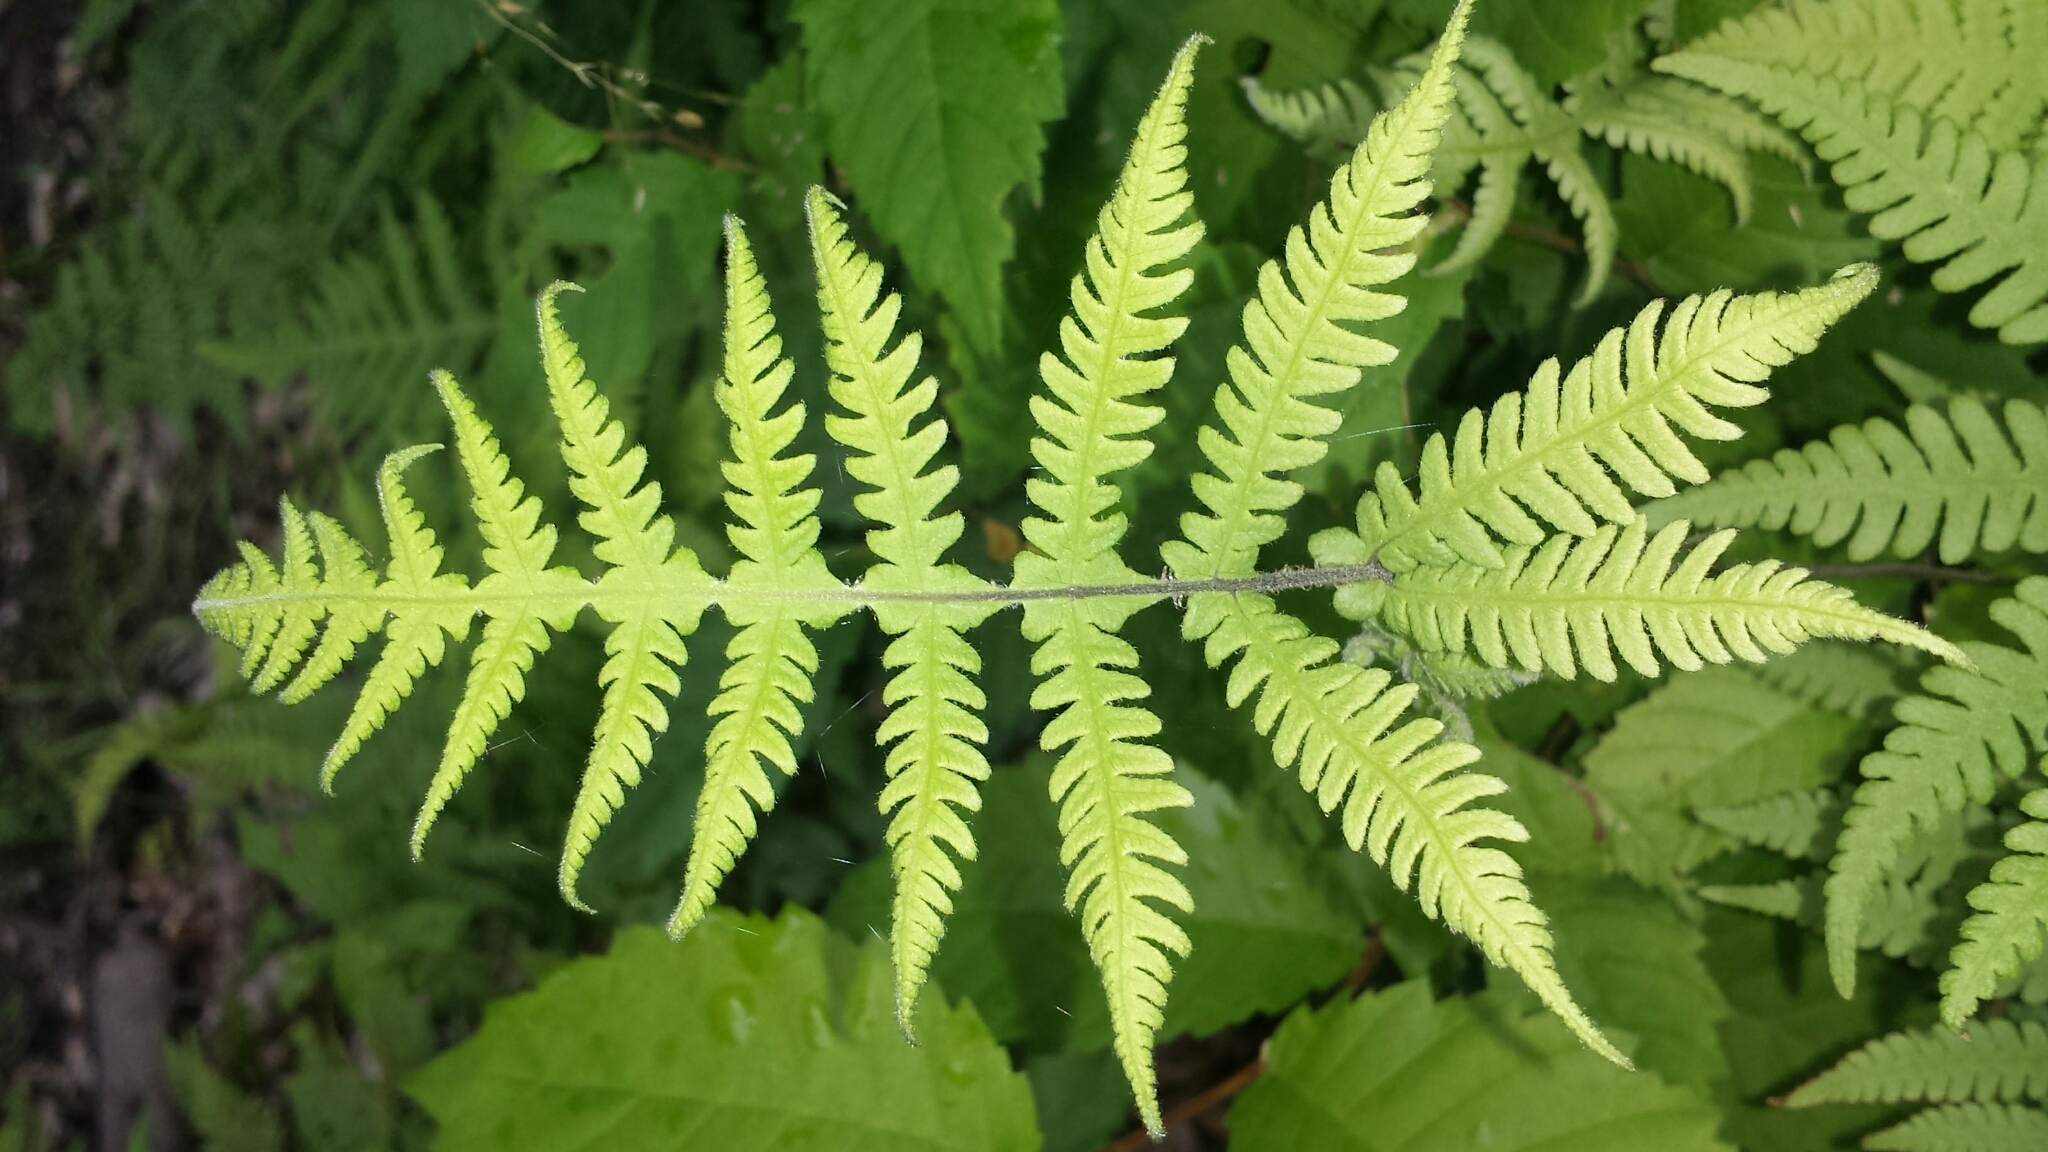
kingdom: Plantae
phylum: Tracheophyta
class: Polypodiopsida
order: Polypodiales
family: Thelypteridaceae
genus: Phegopteris
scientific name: Phegopteris connectilis
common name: Beech fern
